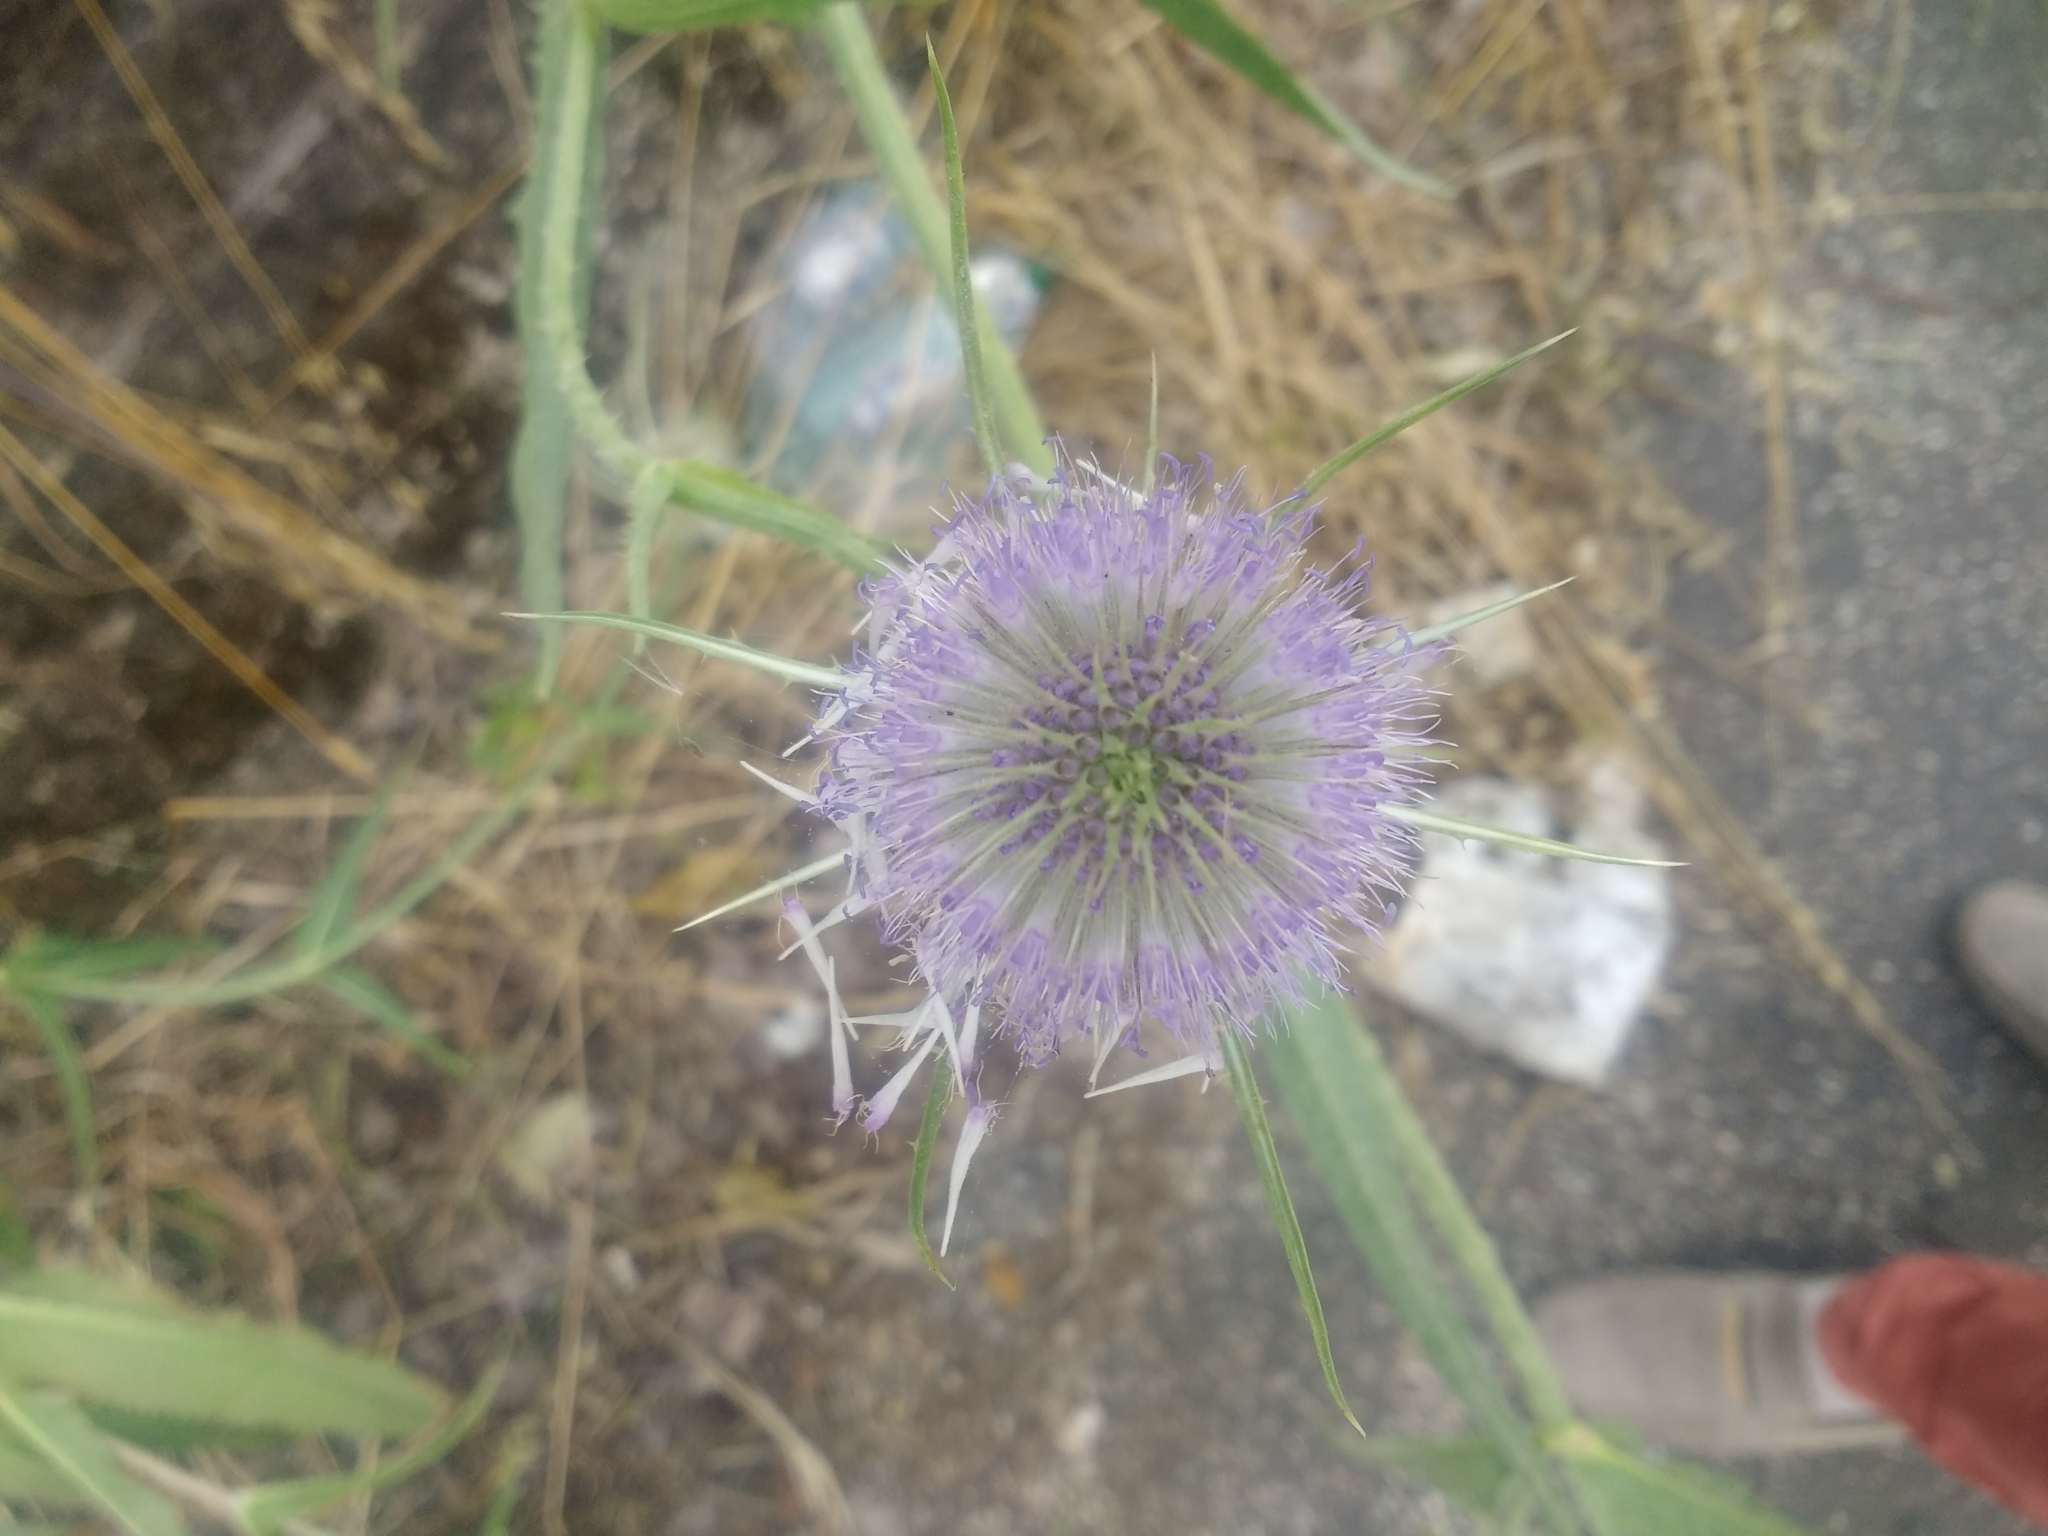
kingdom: Plantae
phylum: Tracheophyta
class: Magnoliopsida
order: Dipsacales
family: Caprifoliaceae
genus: Dipsacus
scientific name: Dipsacus fullonum
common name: Teasel
